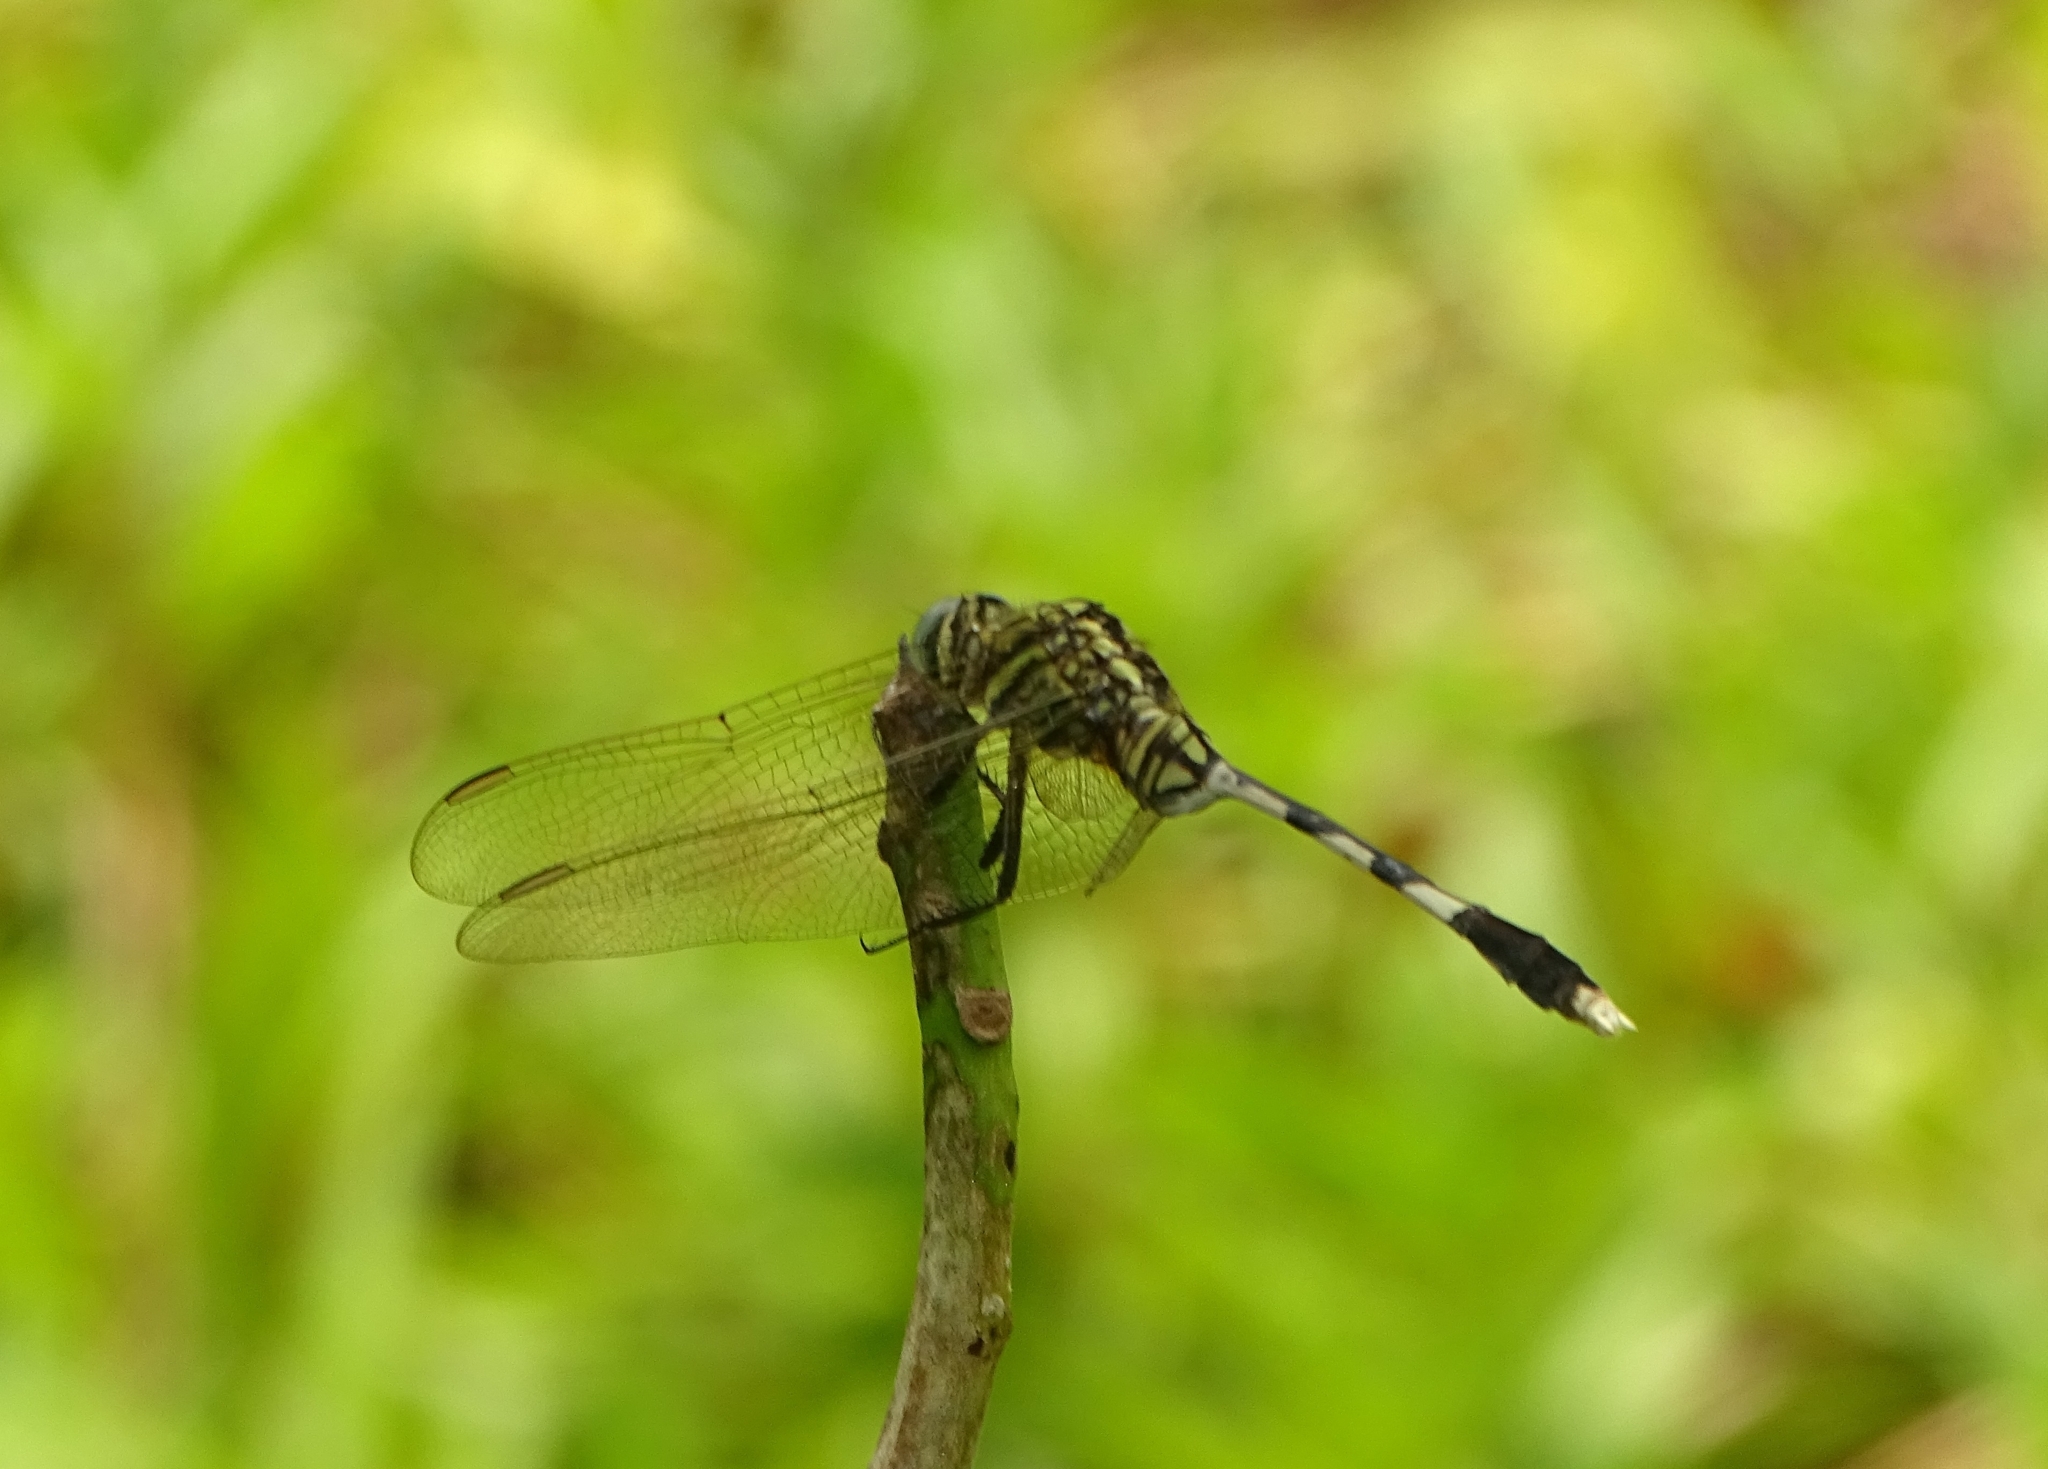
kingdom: Animalia
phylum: Arthropoda
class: Insecta
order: Odonata
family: Libellulidae
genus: Orthetrum
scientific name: Orthetrum sabina
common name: Slender skimmer
